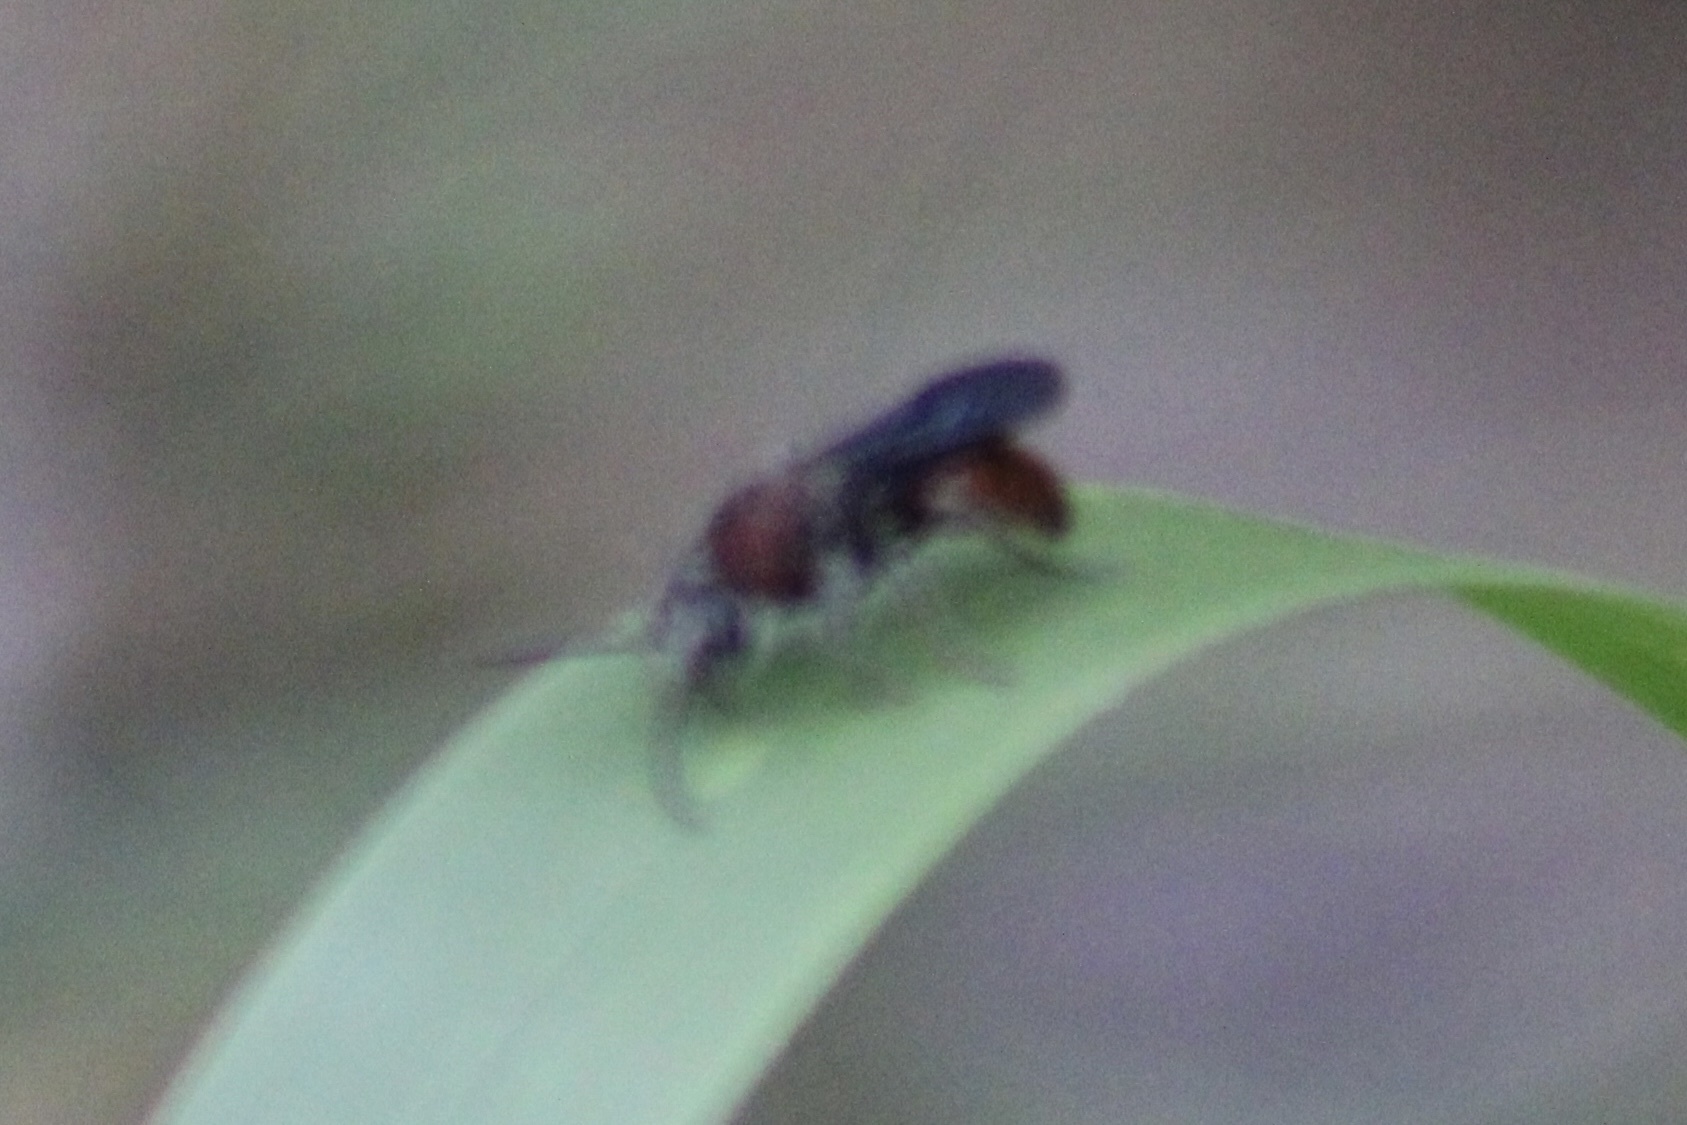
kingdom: Animalia
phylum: Arthropoda
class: Insecta
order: Hymenoptera
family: Mutillidae
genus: Timulla
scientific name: Timulla
